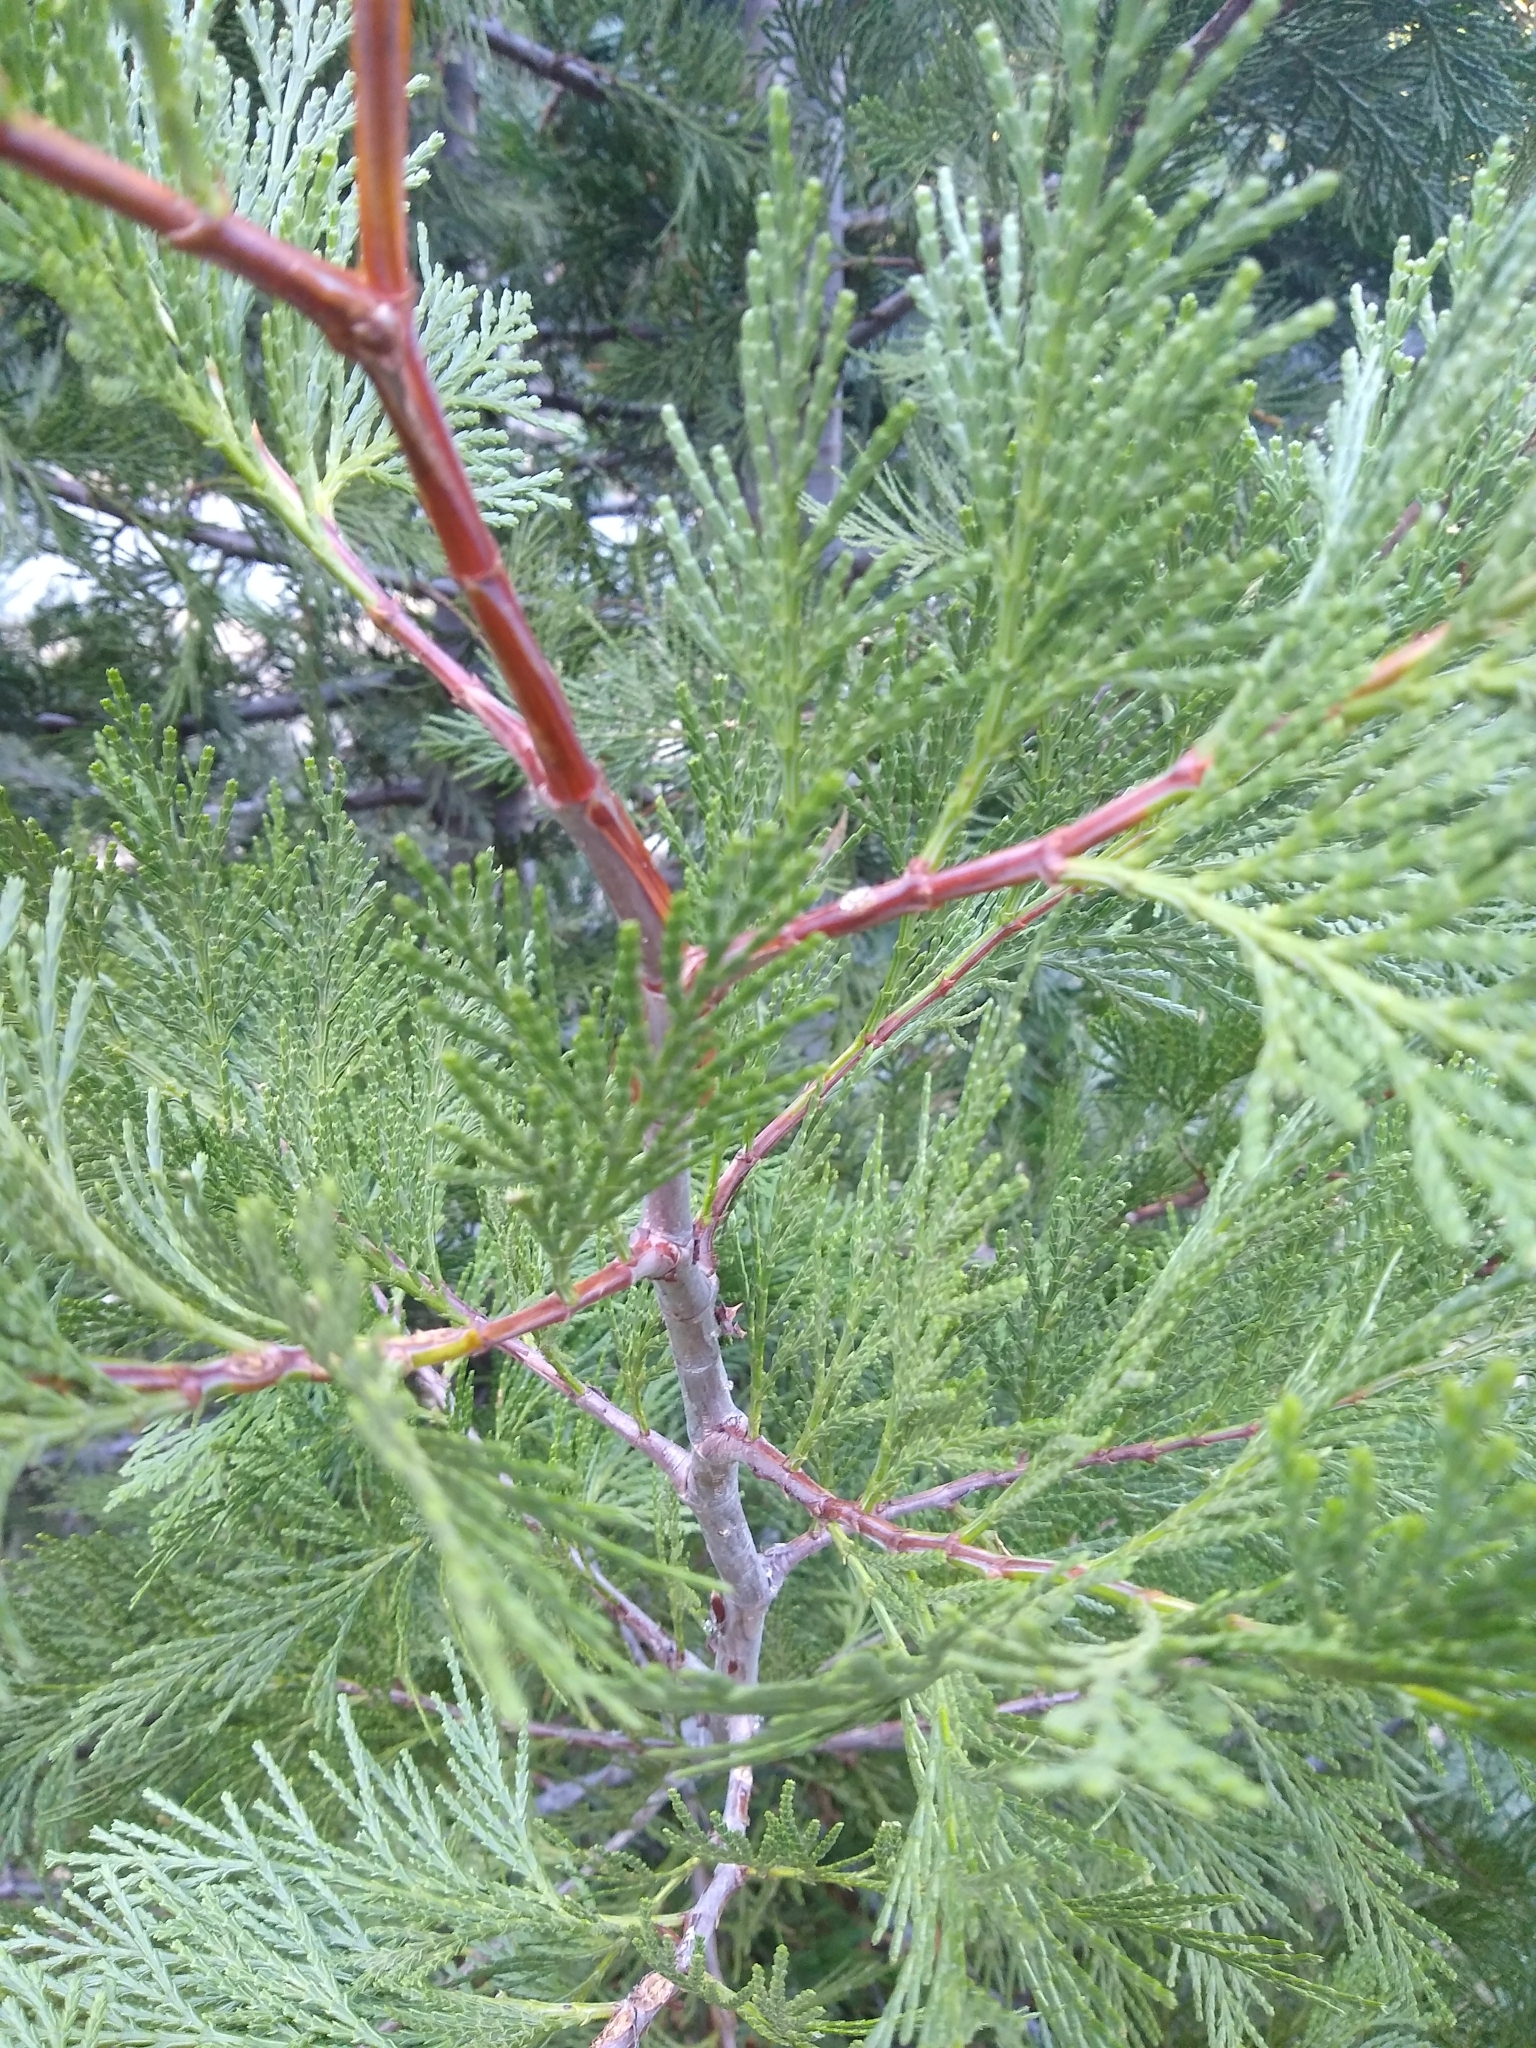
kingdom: Plantae
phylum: Tracheophyta
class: Pinopsida
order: Pinales
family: Cupressaceae
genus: Calocedrus
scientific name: Calocedrus decurrens
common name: Californian incense-cedar
